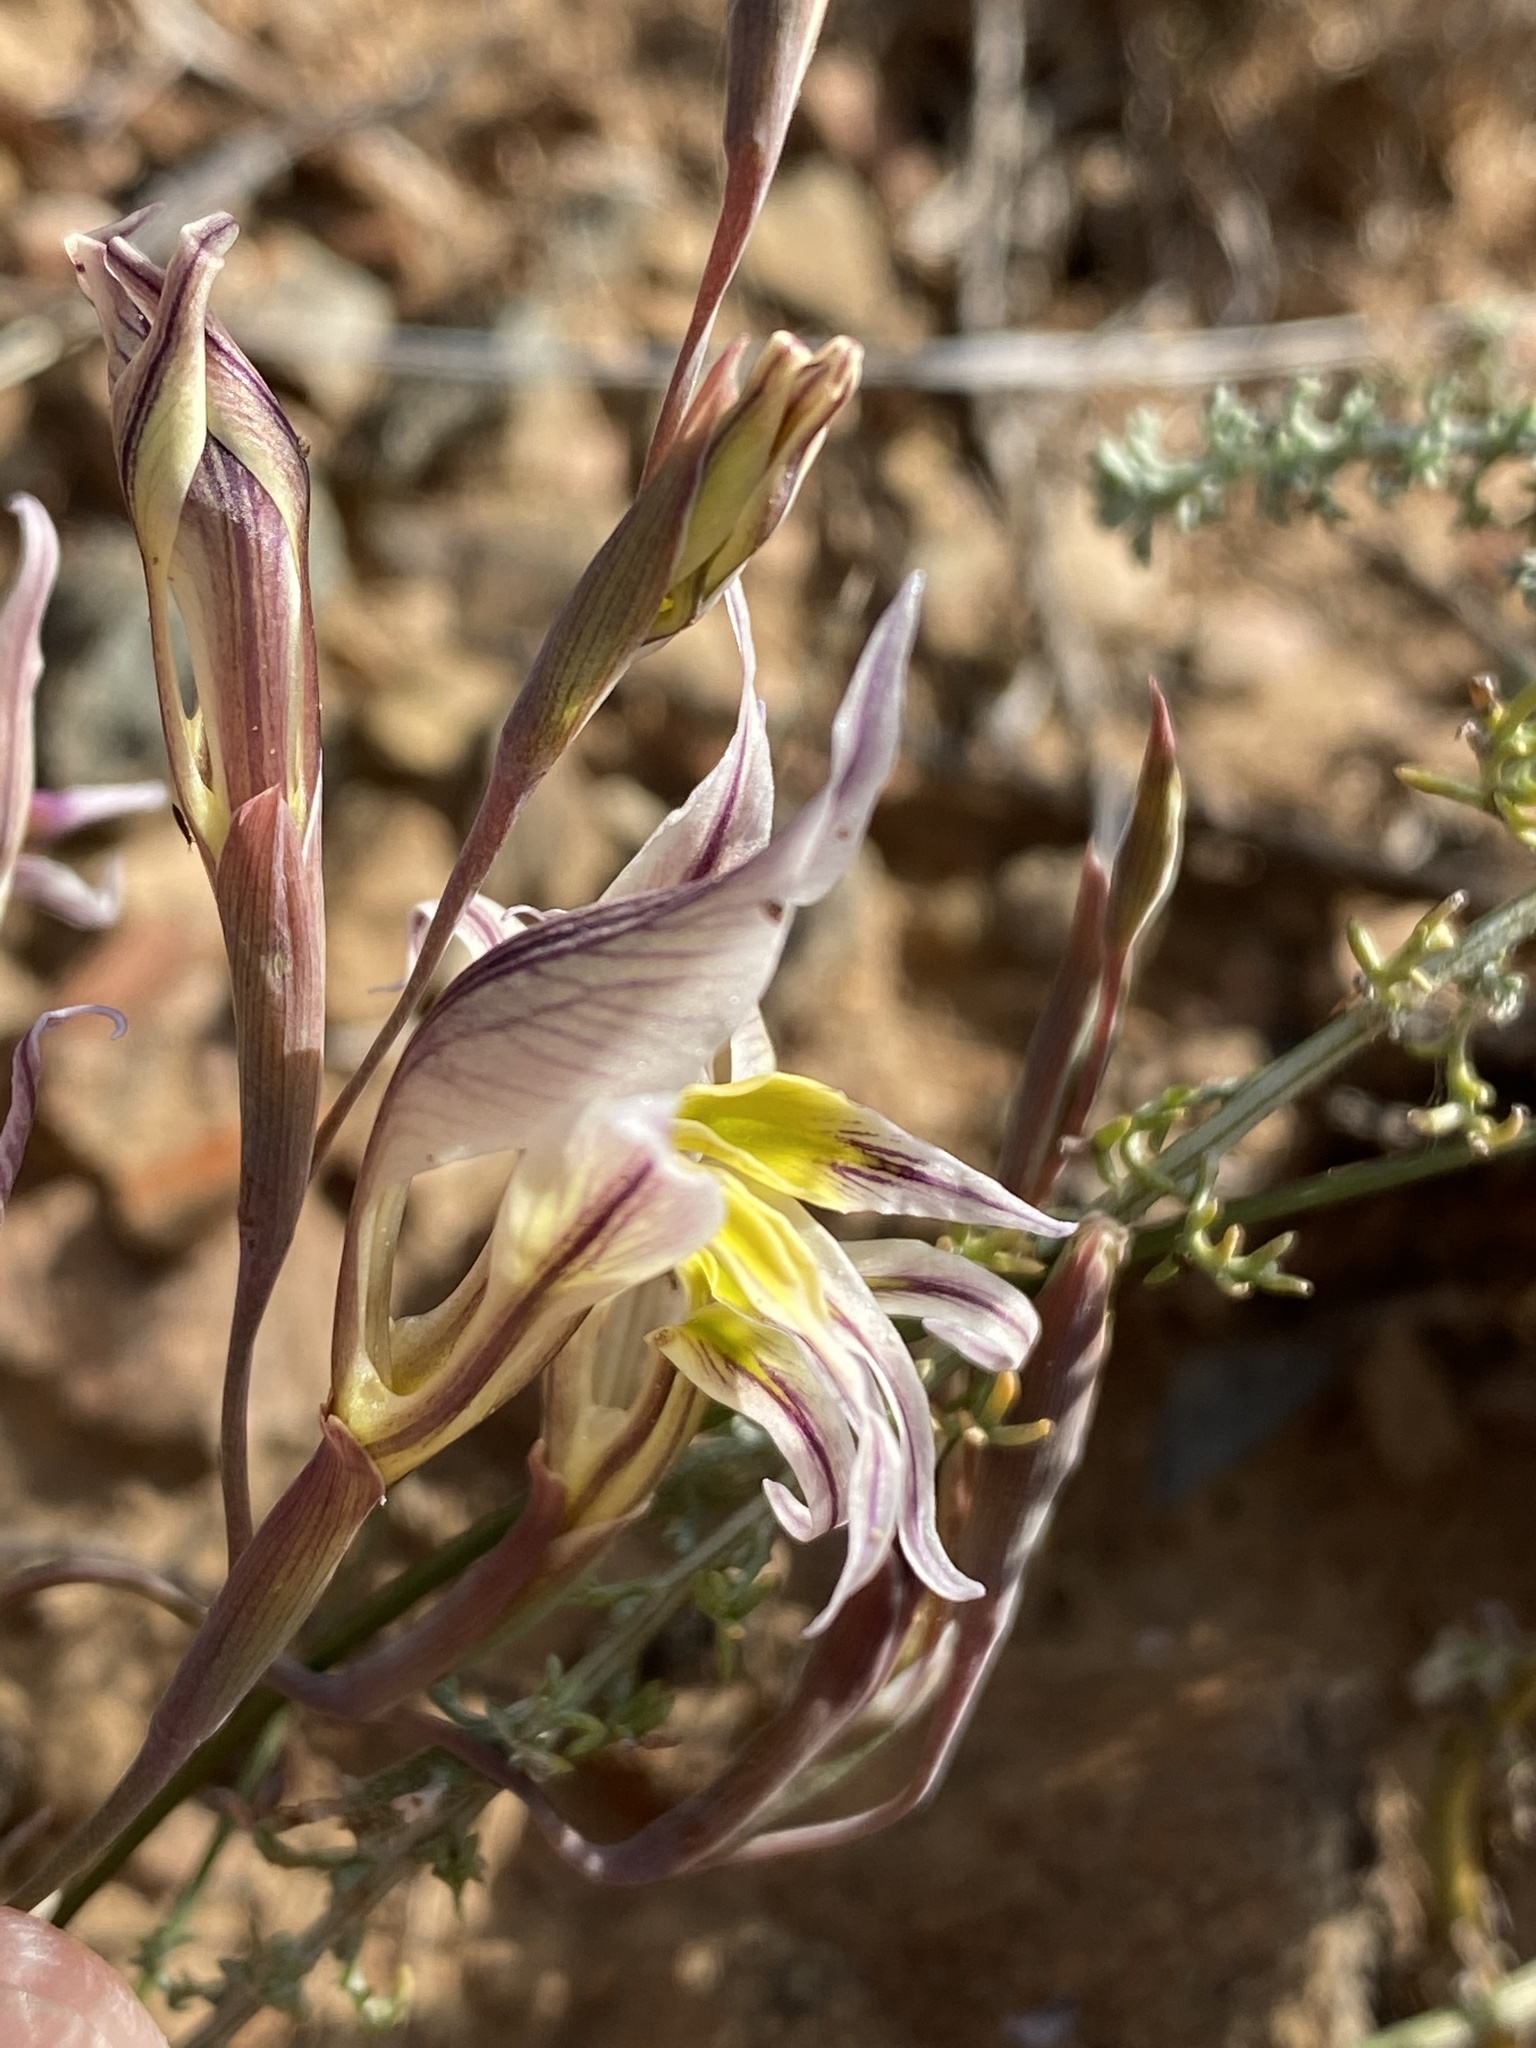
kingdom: Plantae
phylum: Tracheophyta
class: Liliopsida
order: Asparagales
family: Iridaceae
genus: Gladiolus
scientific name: Gladiolus permeabilis
